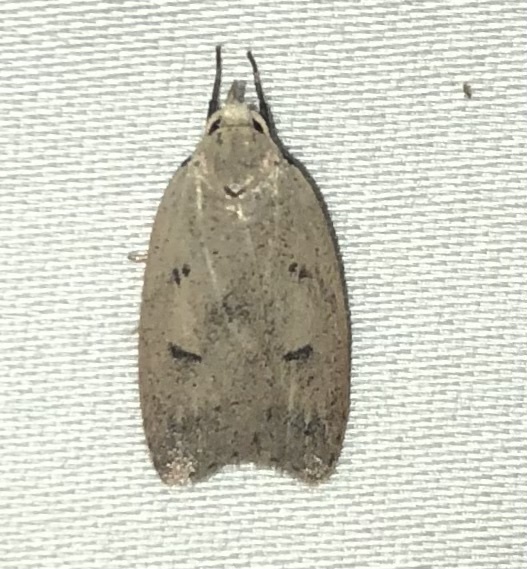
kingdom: Animalia
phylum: Arthropoda
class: Insecta
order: Lepidoptera
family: Peleopodidae
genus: Machimia
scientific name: Machimia tentoriferella
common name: Gold-striped leaftier moth
